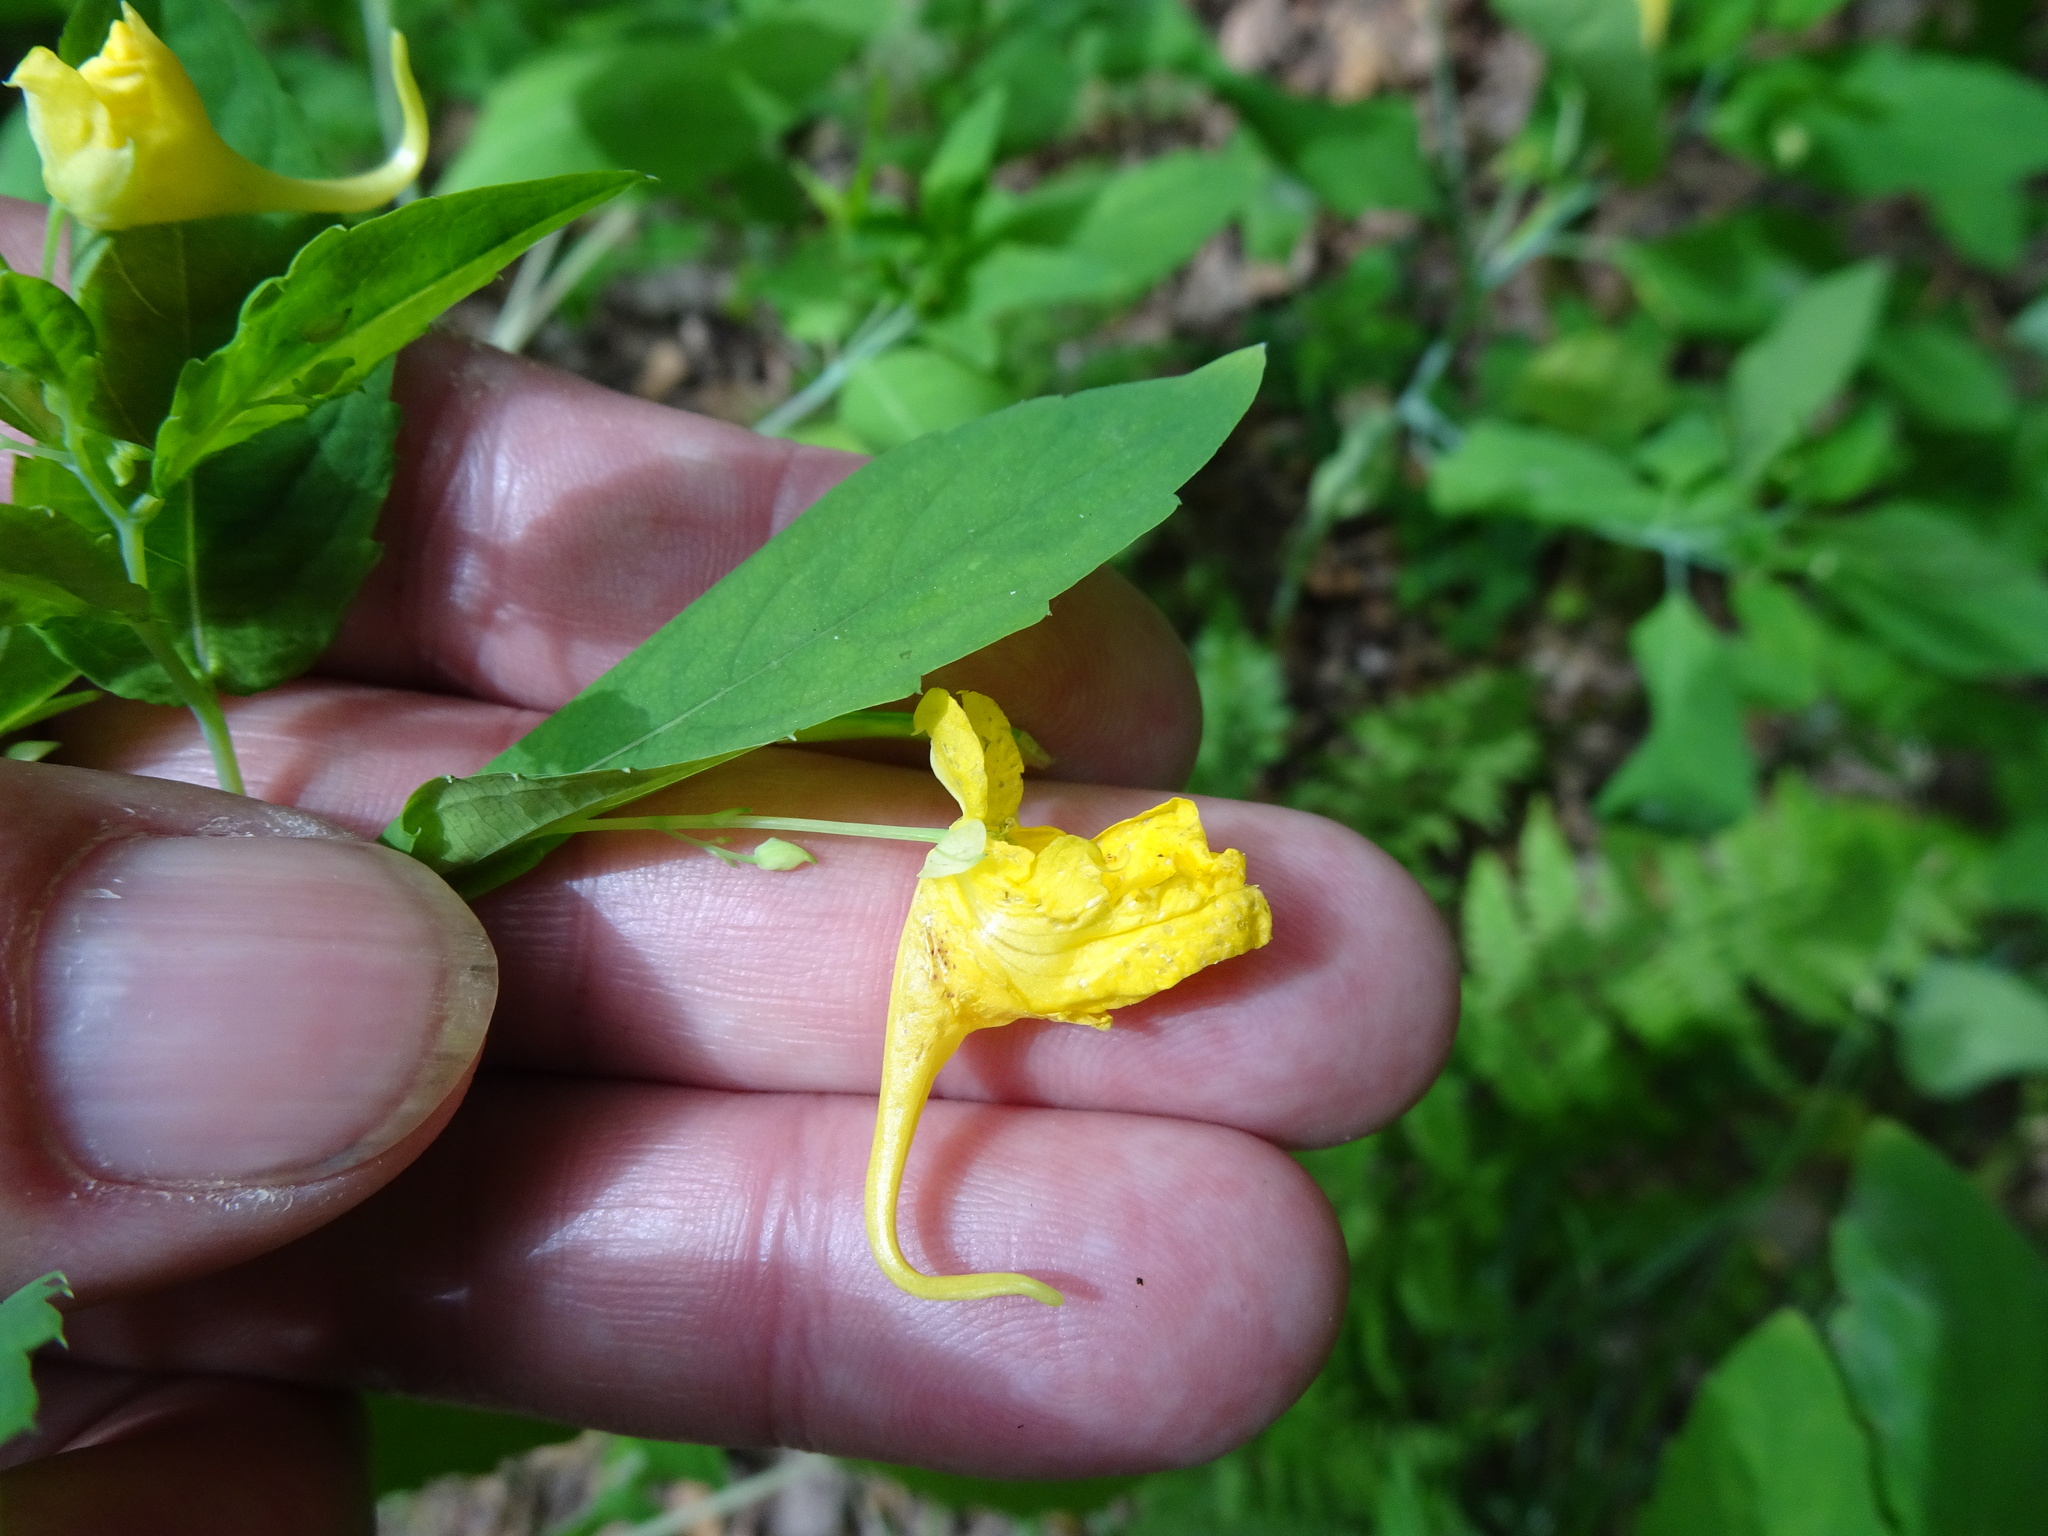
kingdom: Plantae
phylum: Tracheophyta
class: Magnoliopsida
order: Ericales
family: Balsaminaceae
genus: Impatiens
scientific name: Impatiens noli-tangere
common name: Touch-me-not balsam
